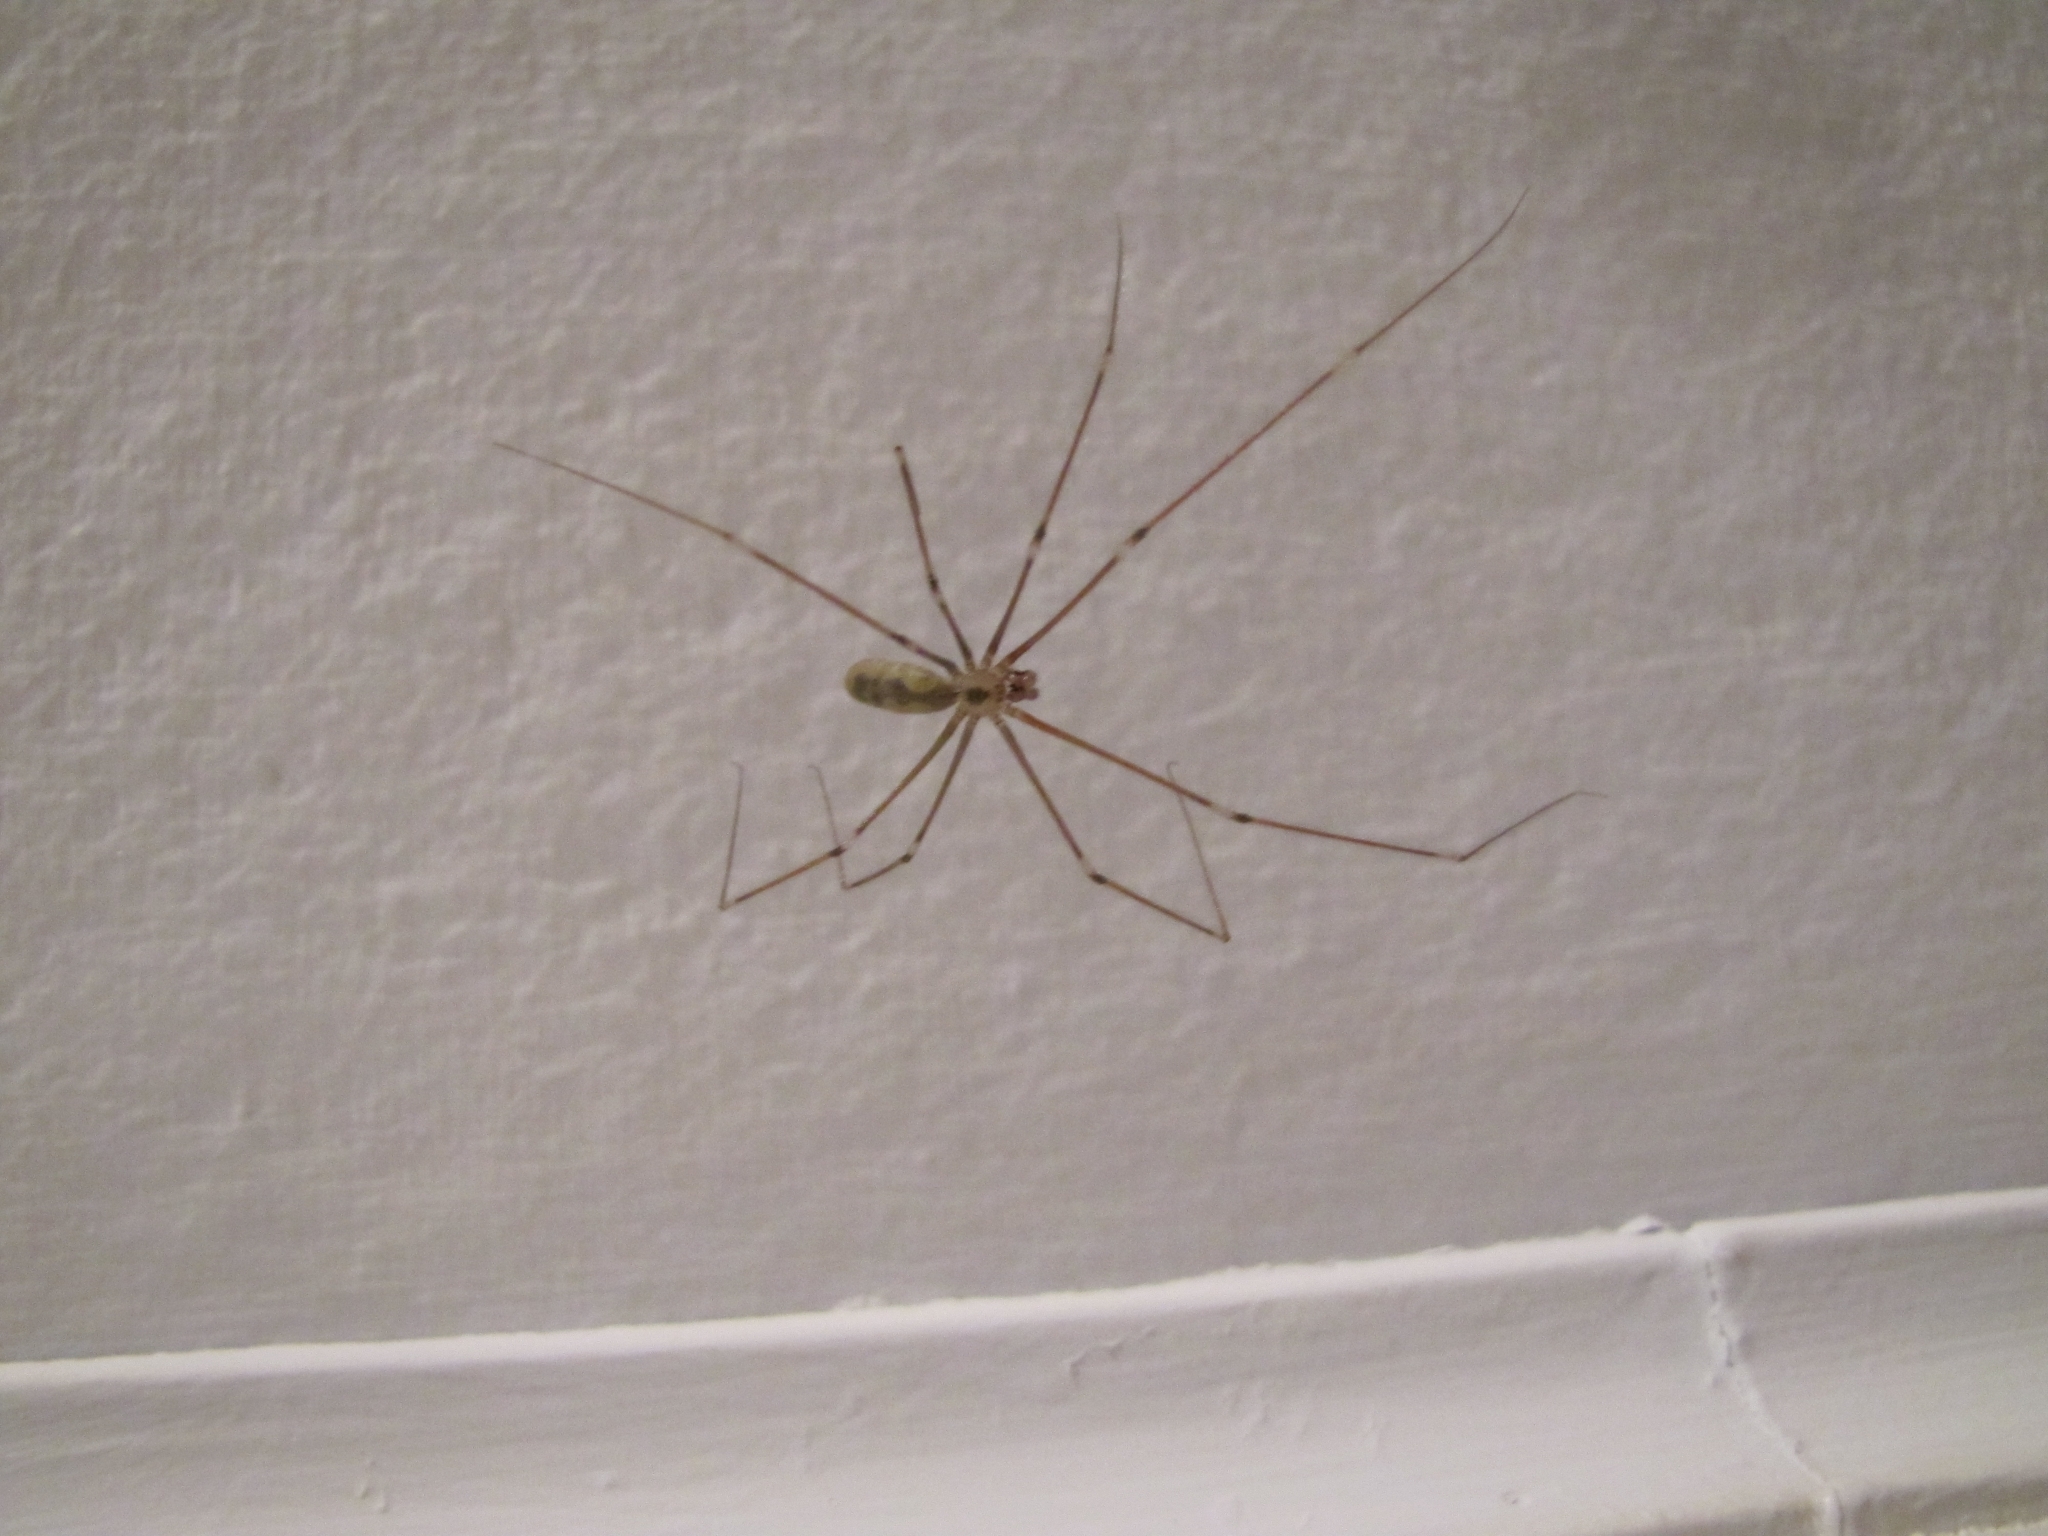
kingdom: Animalia
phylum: Arthropoda
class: Arachnida
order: Araneae
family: Pholcidae
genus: Pholcus
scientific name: Pholcus phalangioides
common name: Longbodied cellar spider
